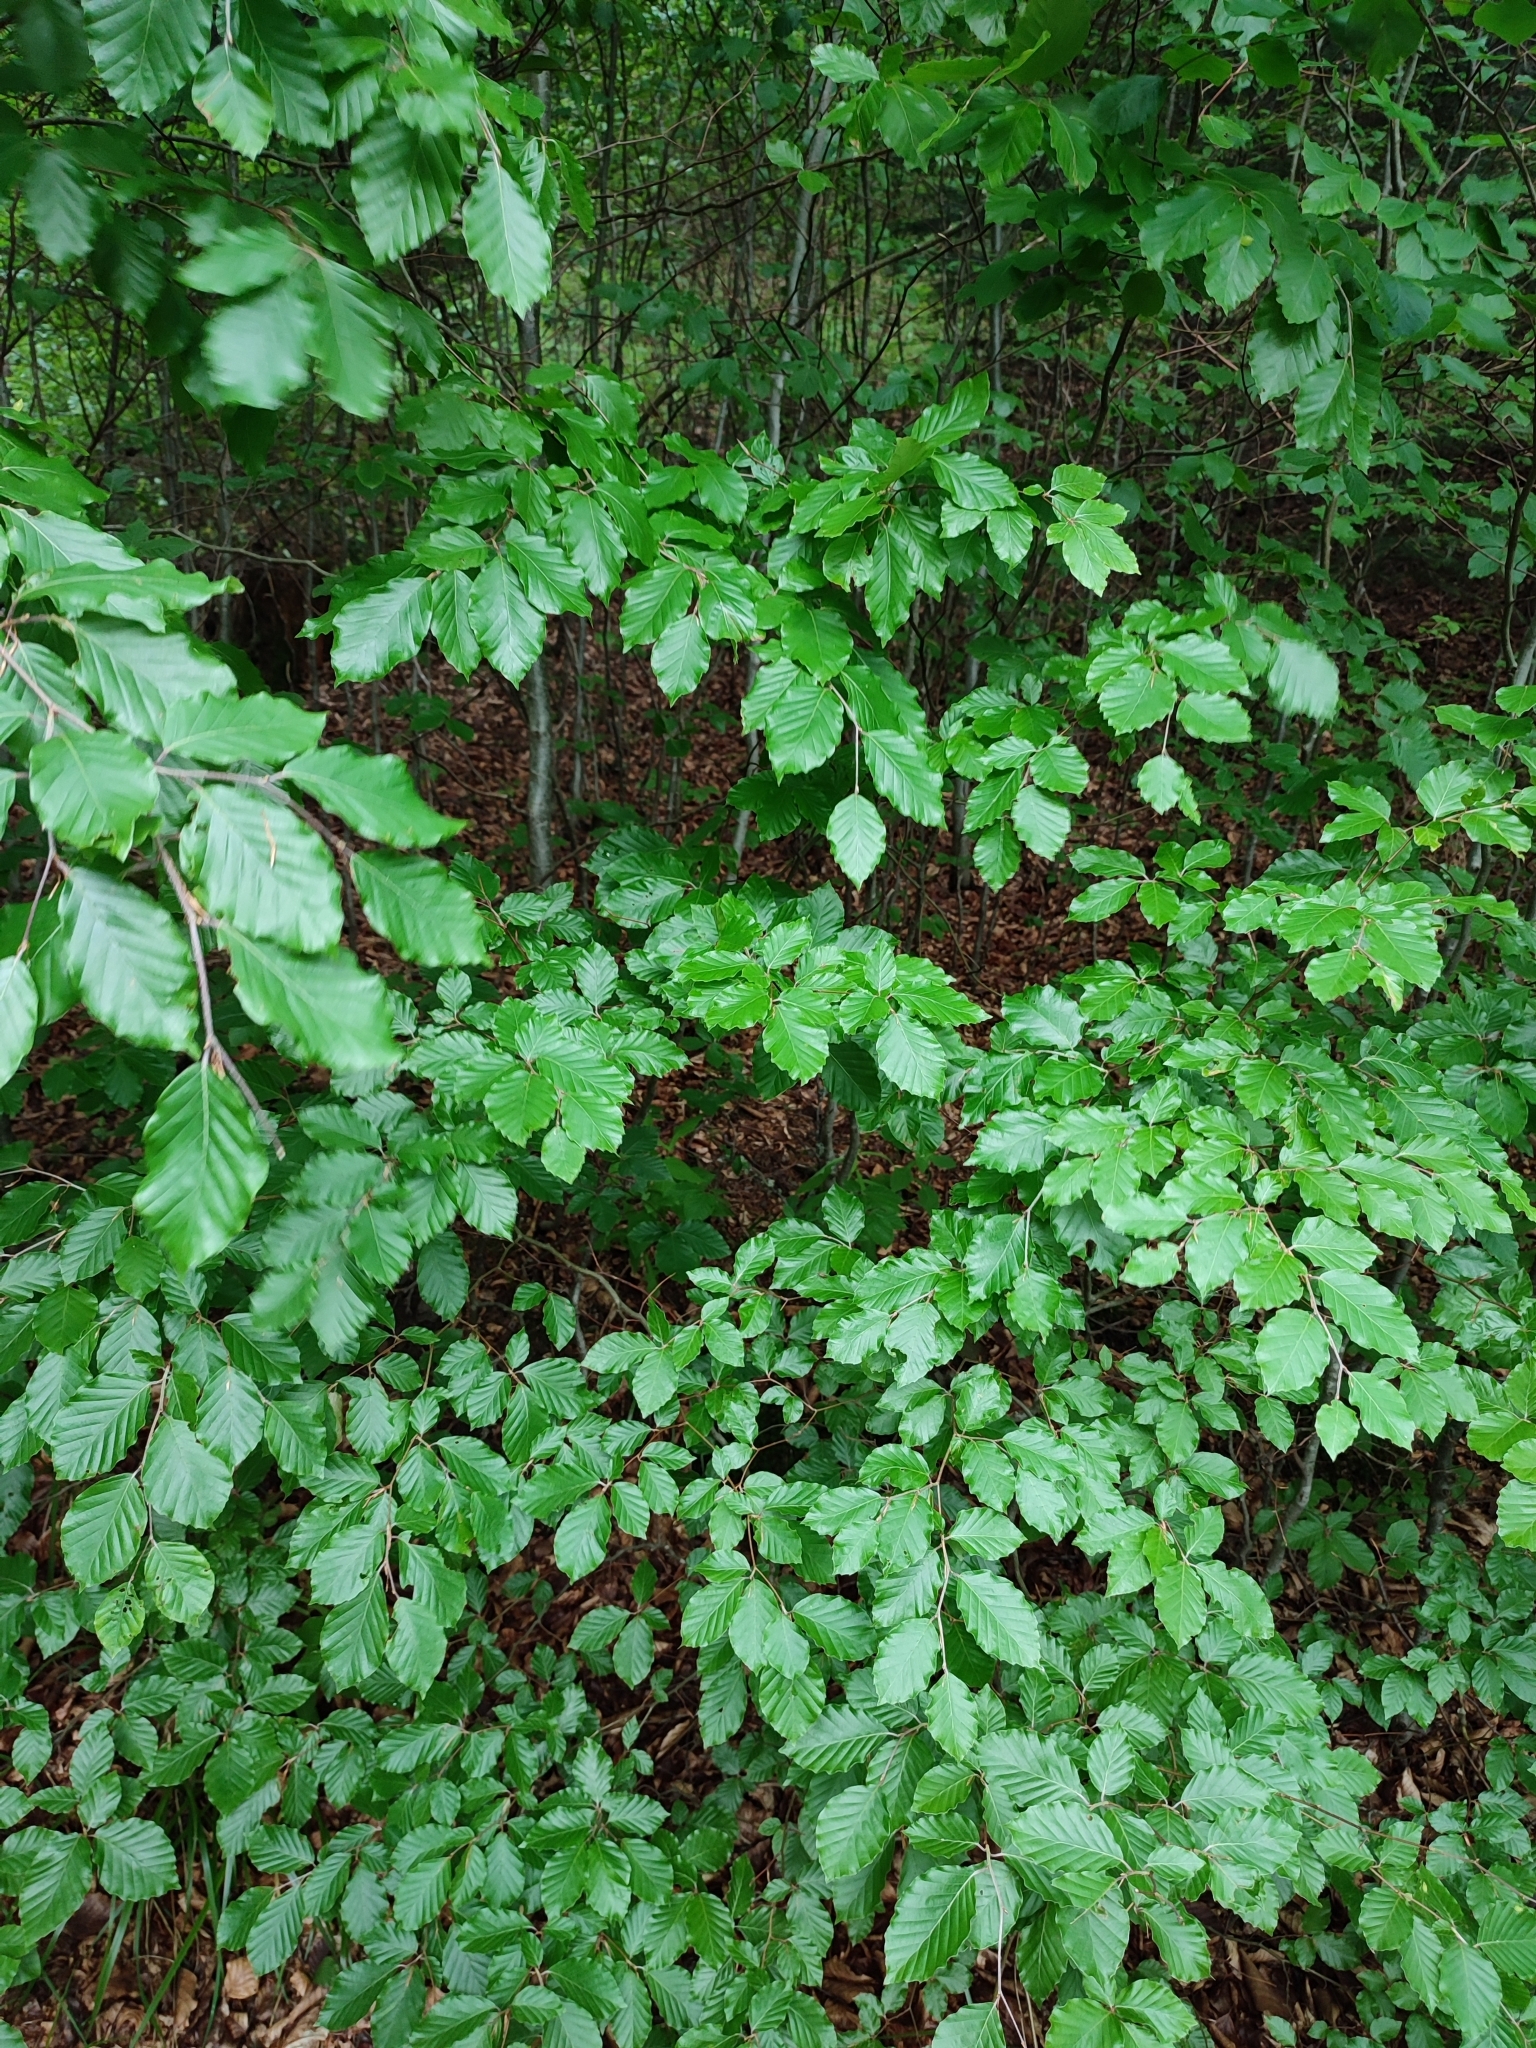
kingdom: Plantae
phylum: Tracheophyta
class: Magnoliopsida
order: Fagales
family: Fagaceae
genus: Fagus
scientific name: Fagus sylvatica
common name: Beech
